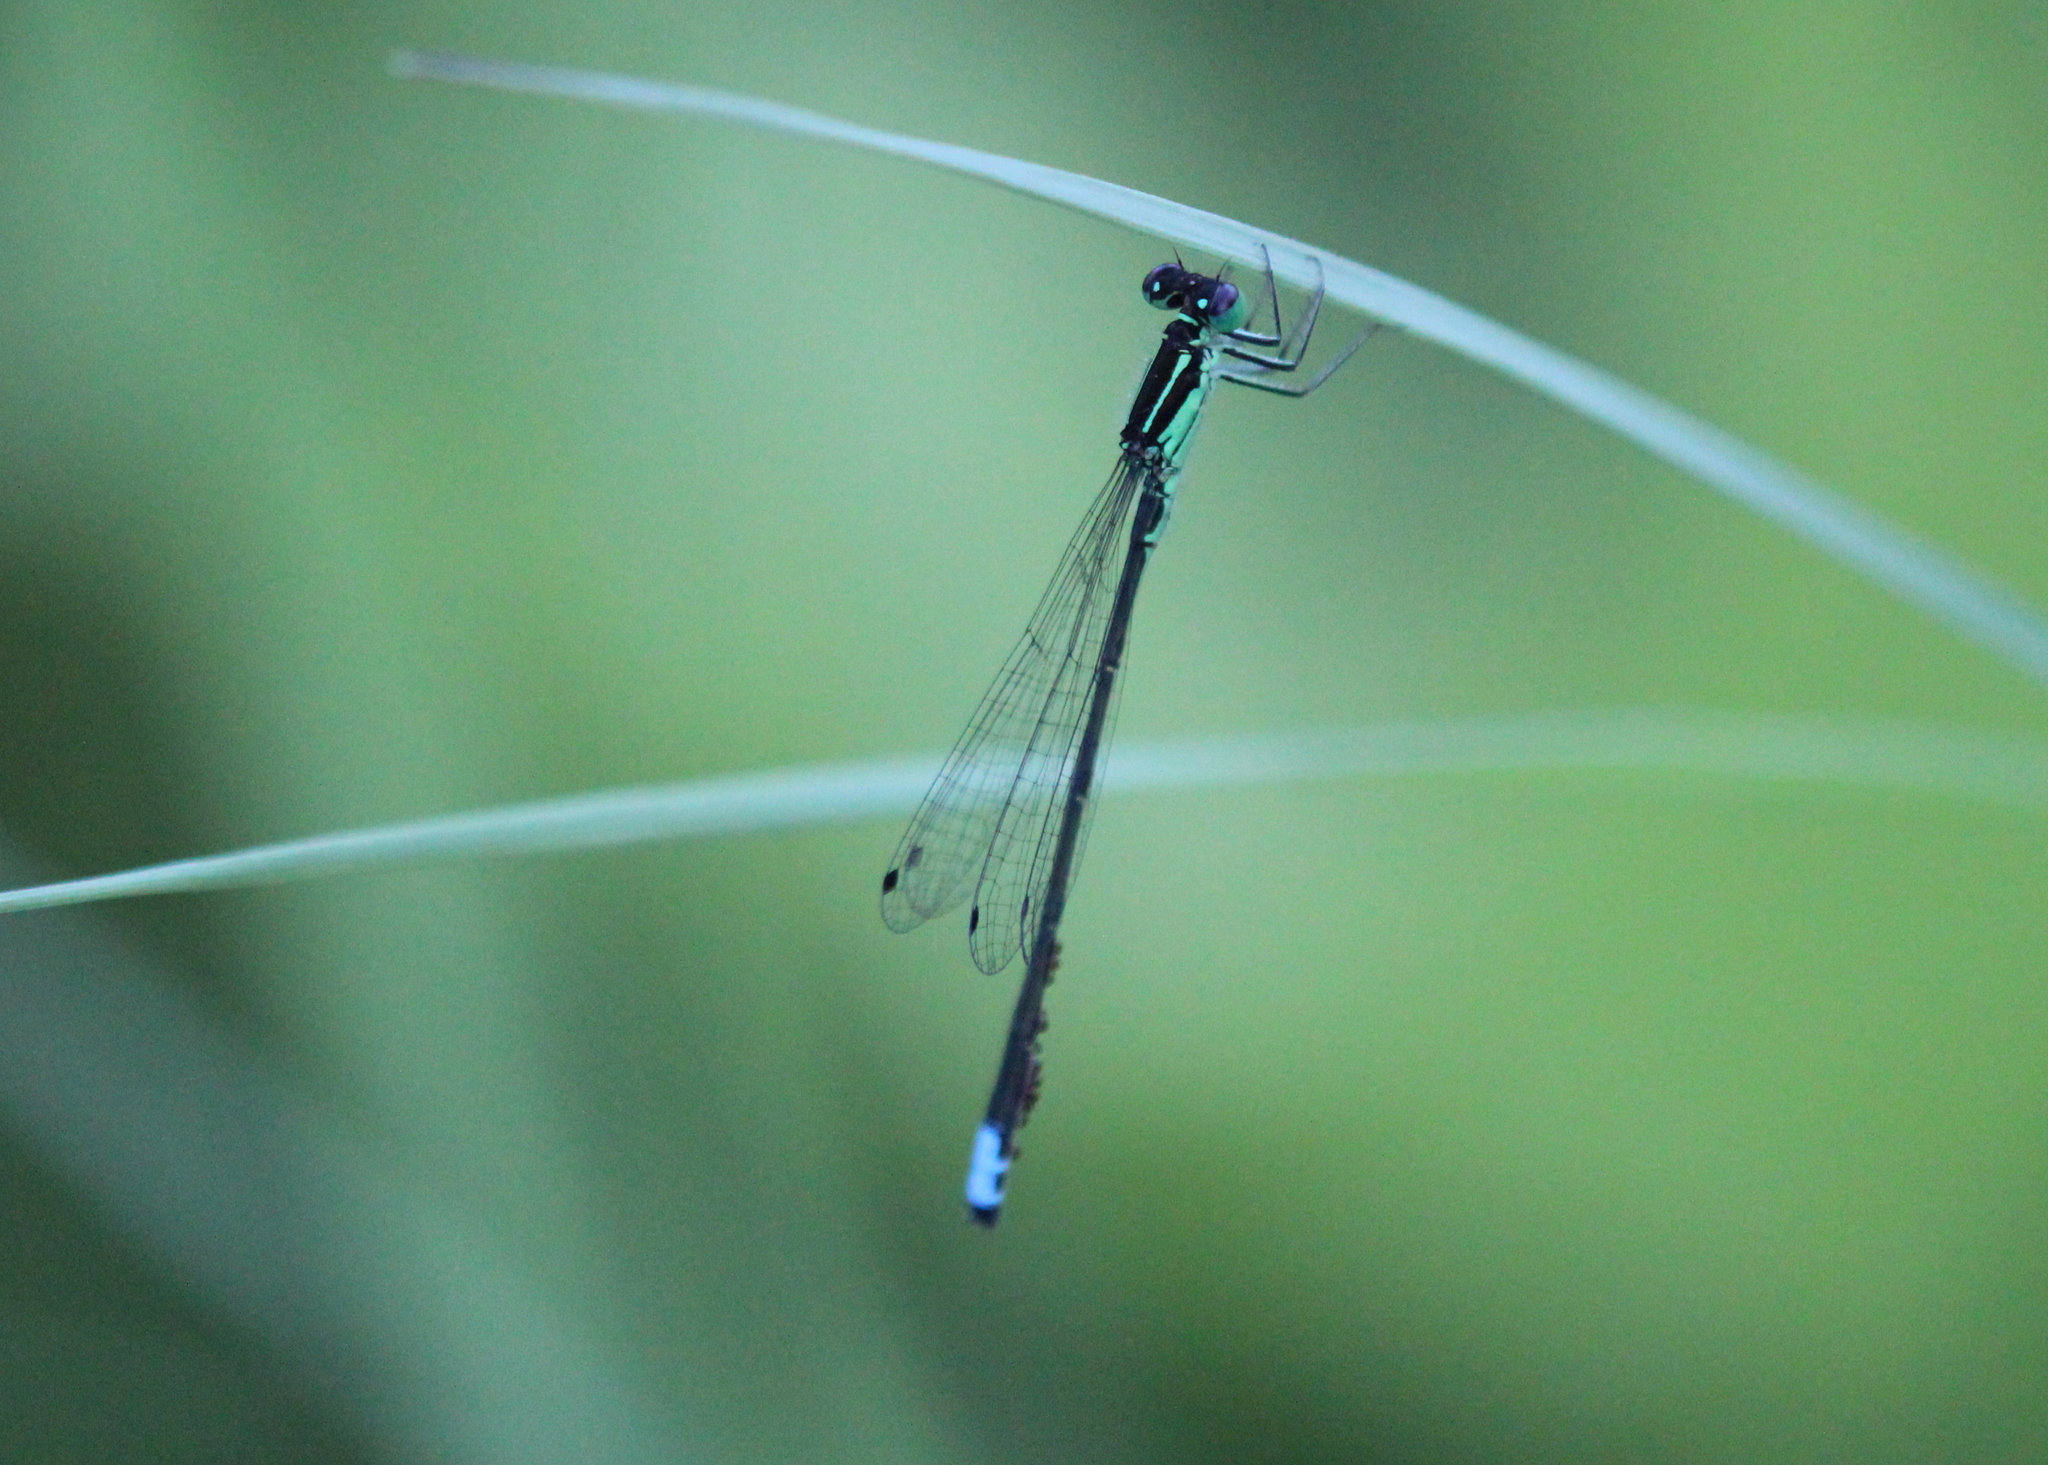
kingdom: Animalia
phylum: Arthropoda
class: Insecta
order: Odonata
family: Coenagrionidae
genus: Ischnura
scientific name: Ischnura verticalis
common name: Eastern forktail
